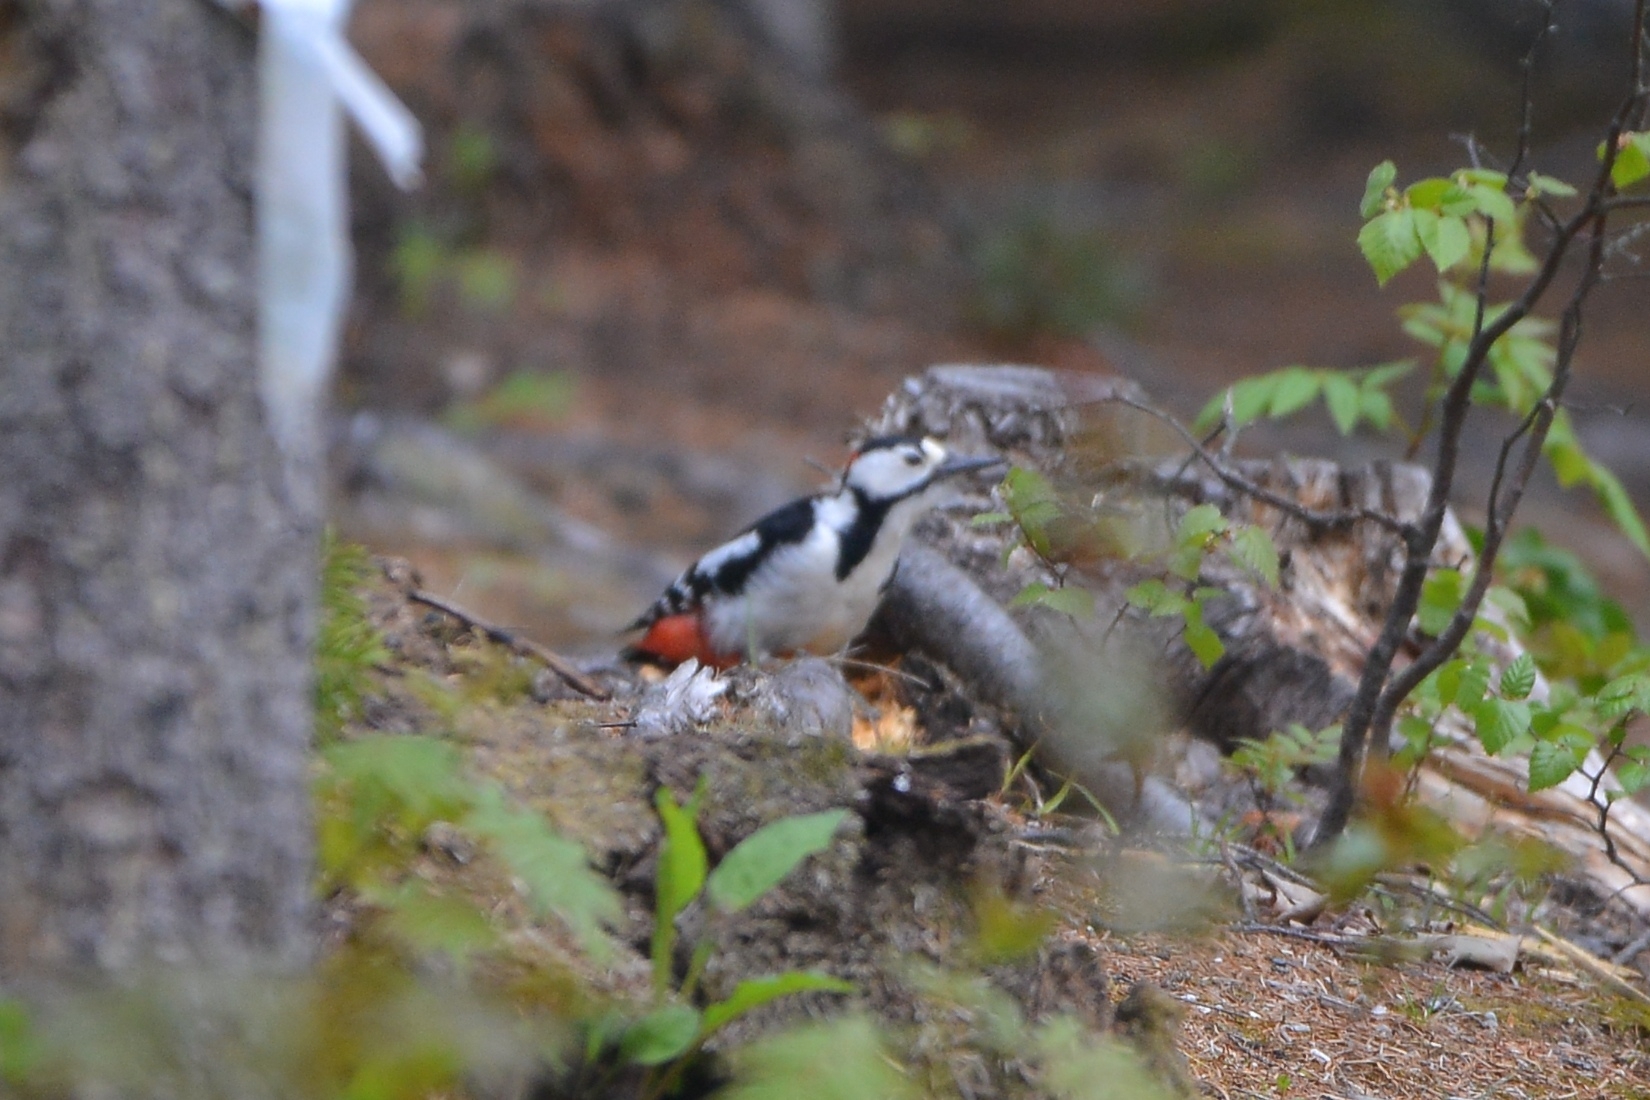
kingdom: Animalia
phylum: Chordata
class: Aves
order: Piciformes
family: Picidae
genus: Dendrocopos
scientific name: Dendrocopos major
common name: Great spotted woodpecker
